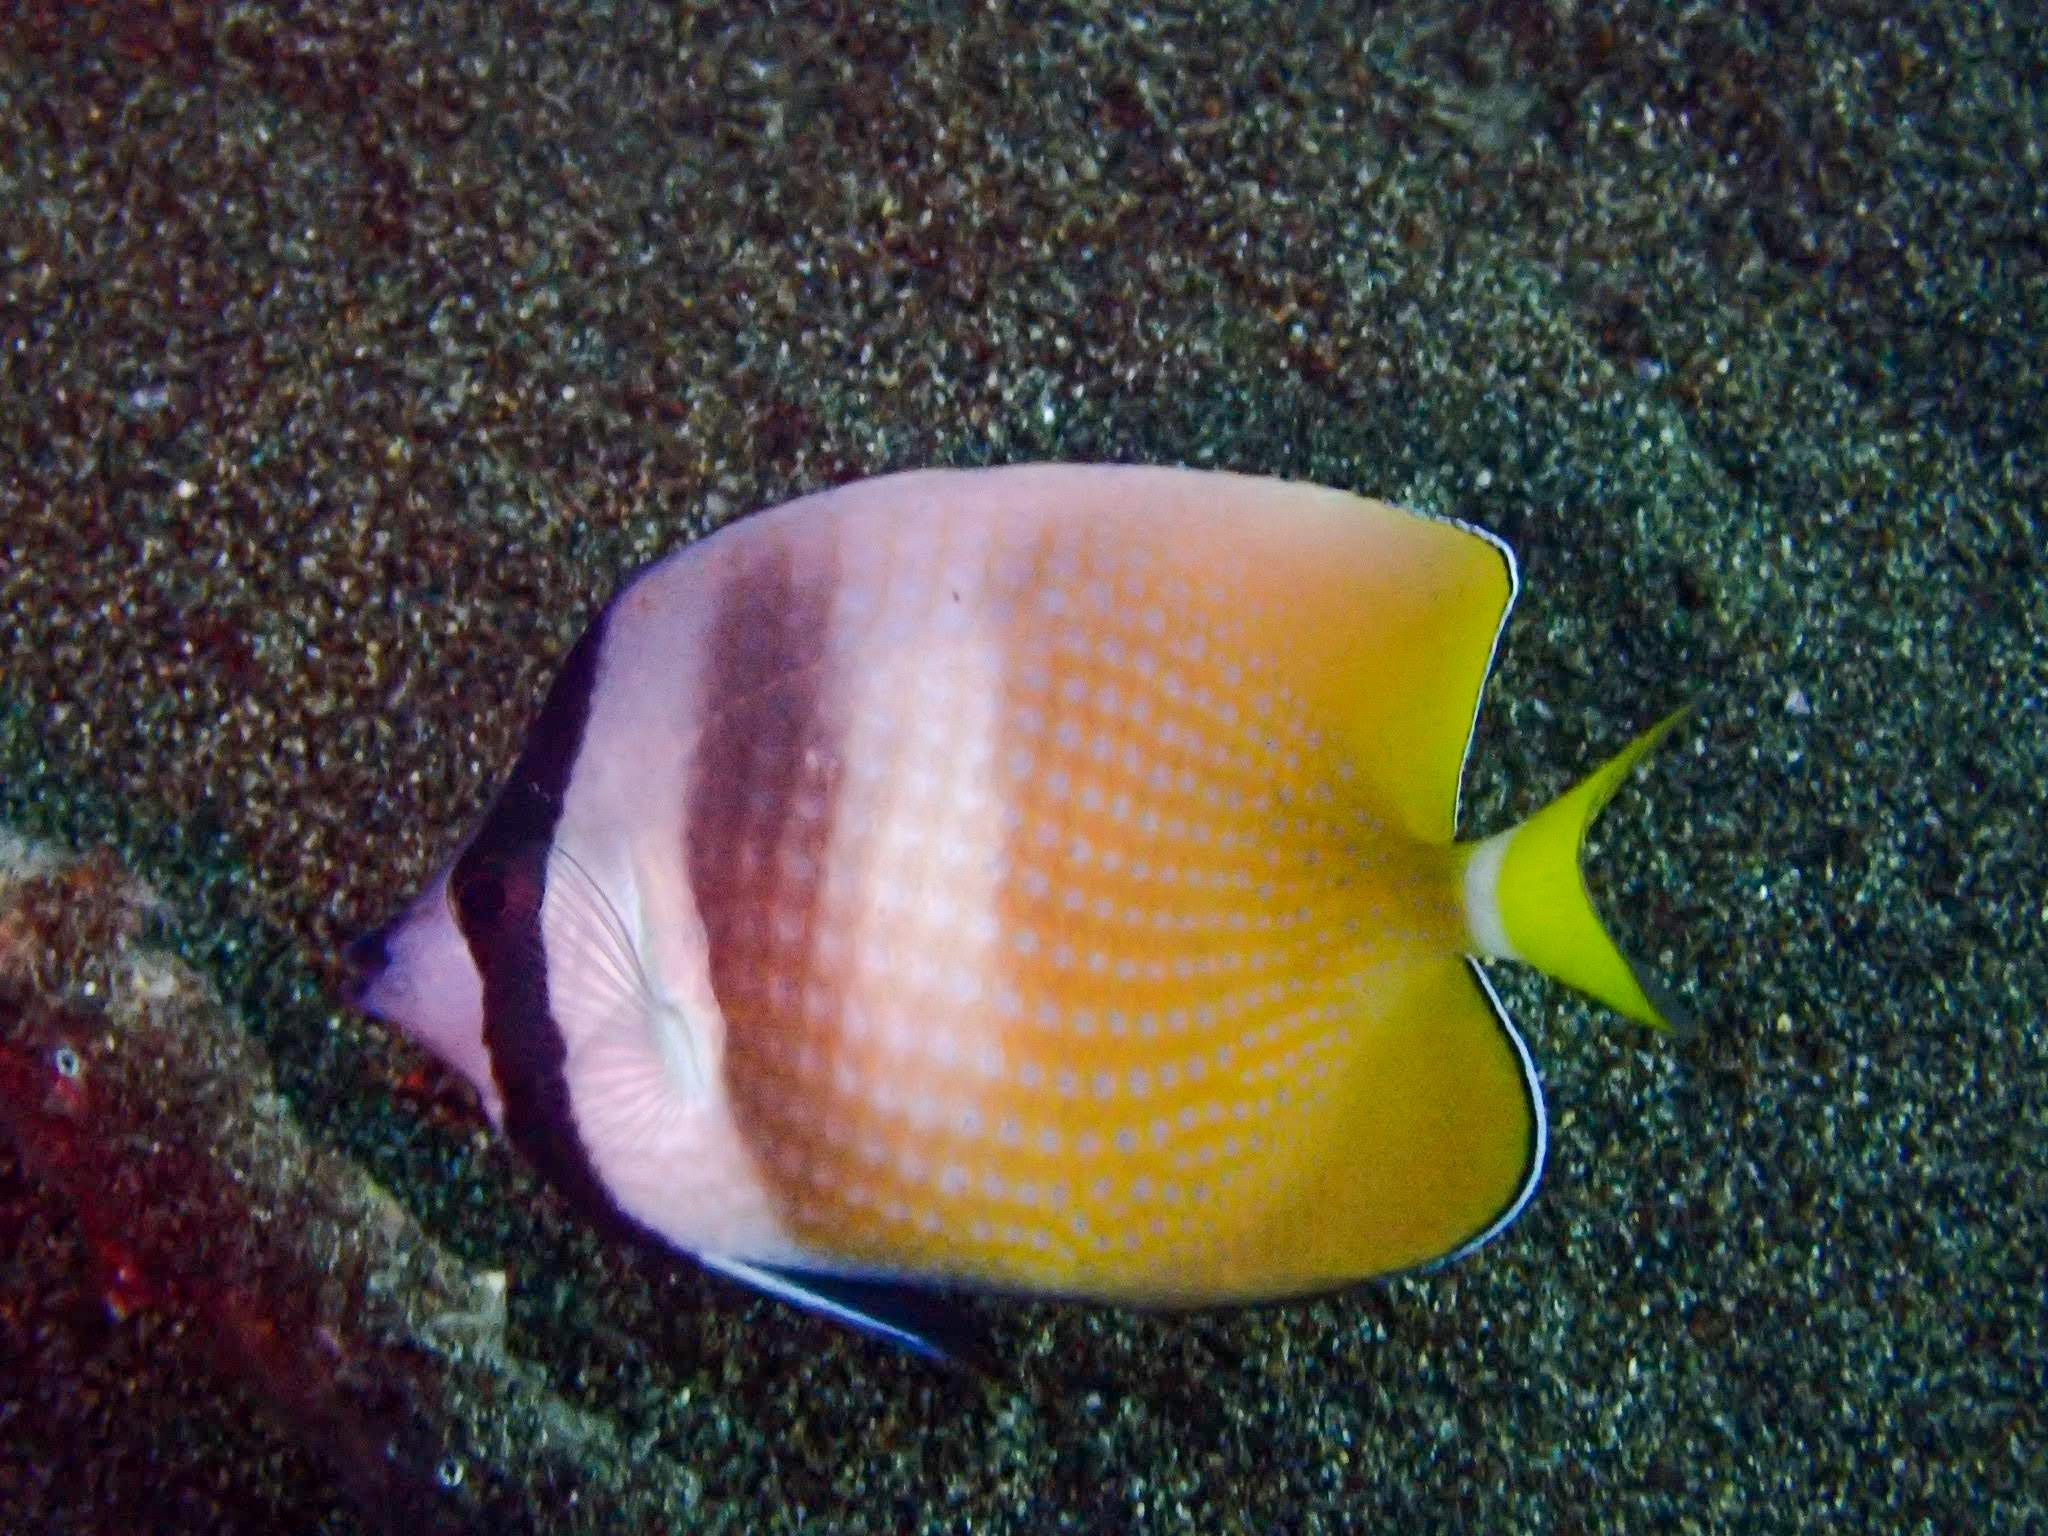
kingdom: Animalia
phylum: Chordata
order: Perciformes
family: Chaetodontidae
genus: Chaetodon
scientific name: Chaetodon kleinii
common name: Klein's butterflyfish
